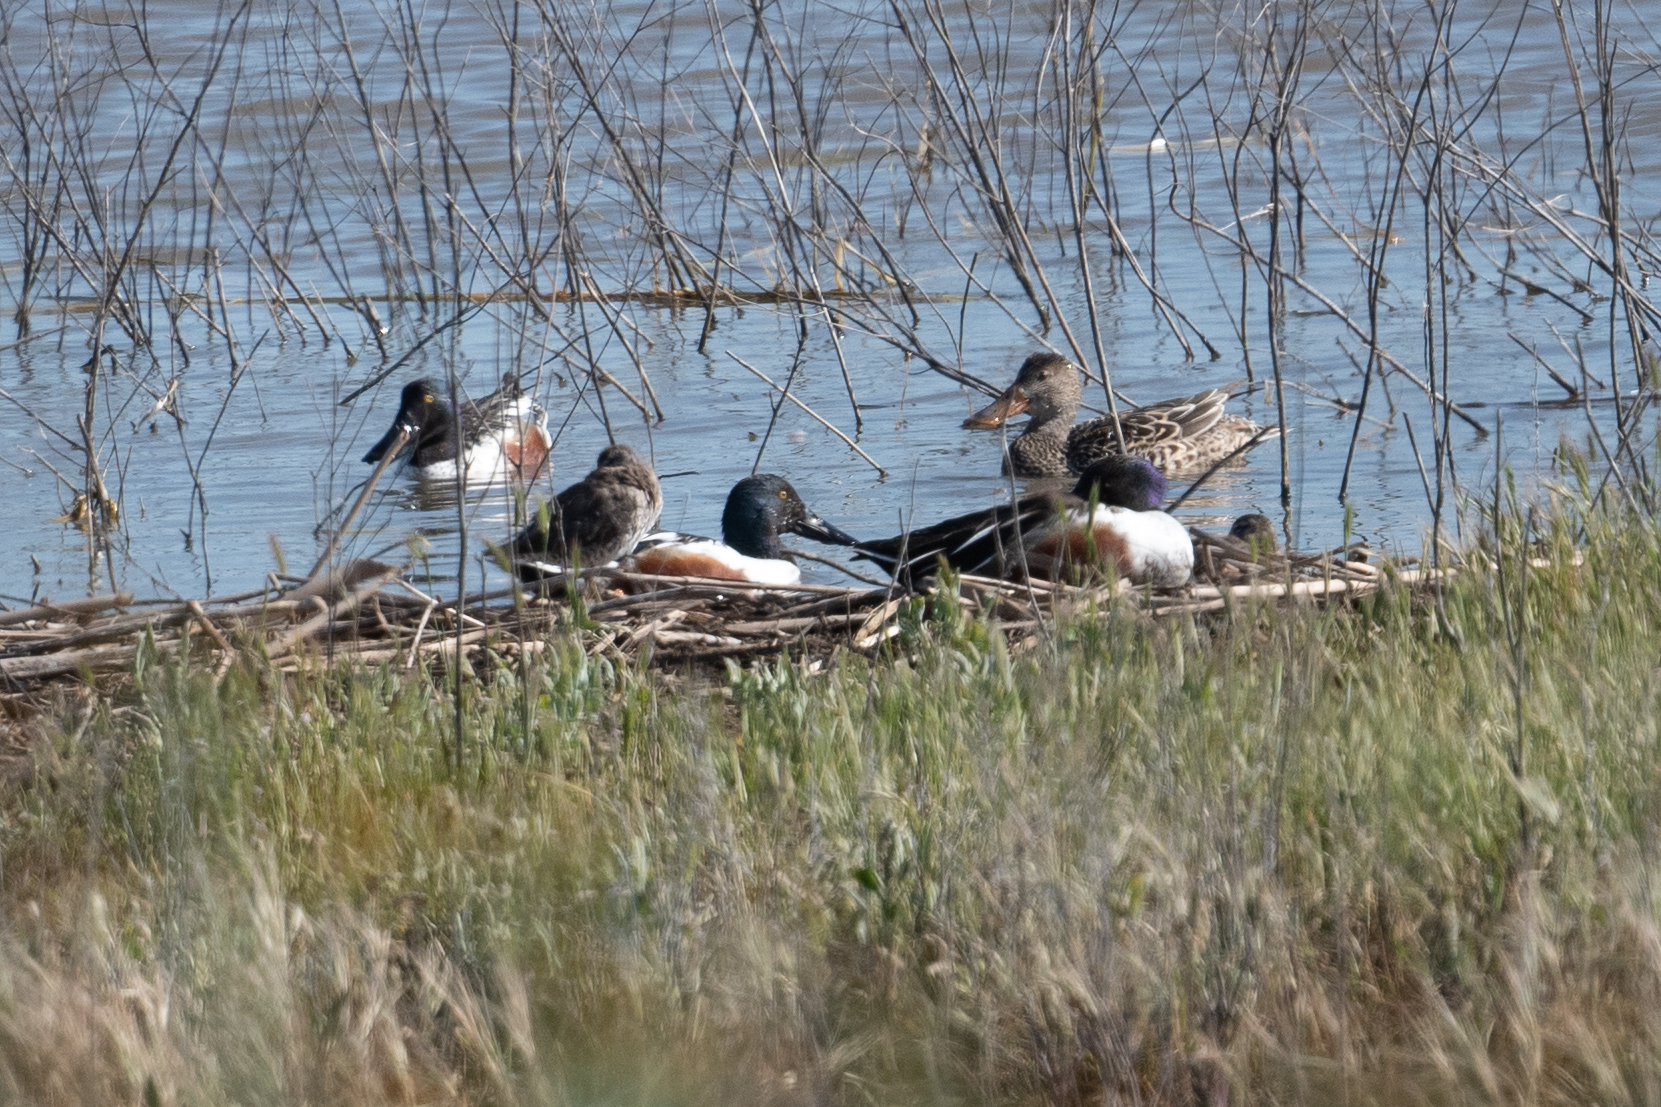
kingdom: Animalia
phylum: Chordata
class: Aves
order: Anseriformes
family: Anatidae
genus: Spatula
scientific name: Spatula clypeata
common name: Northern shoveler
